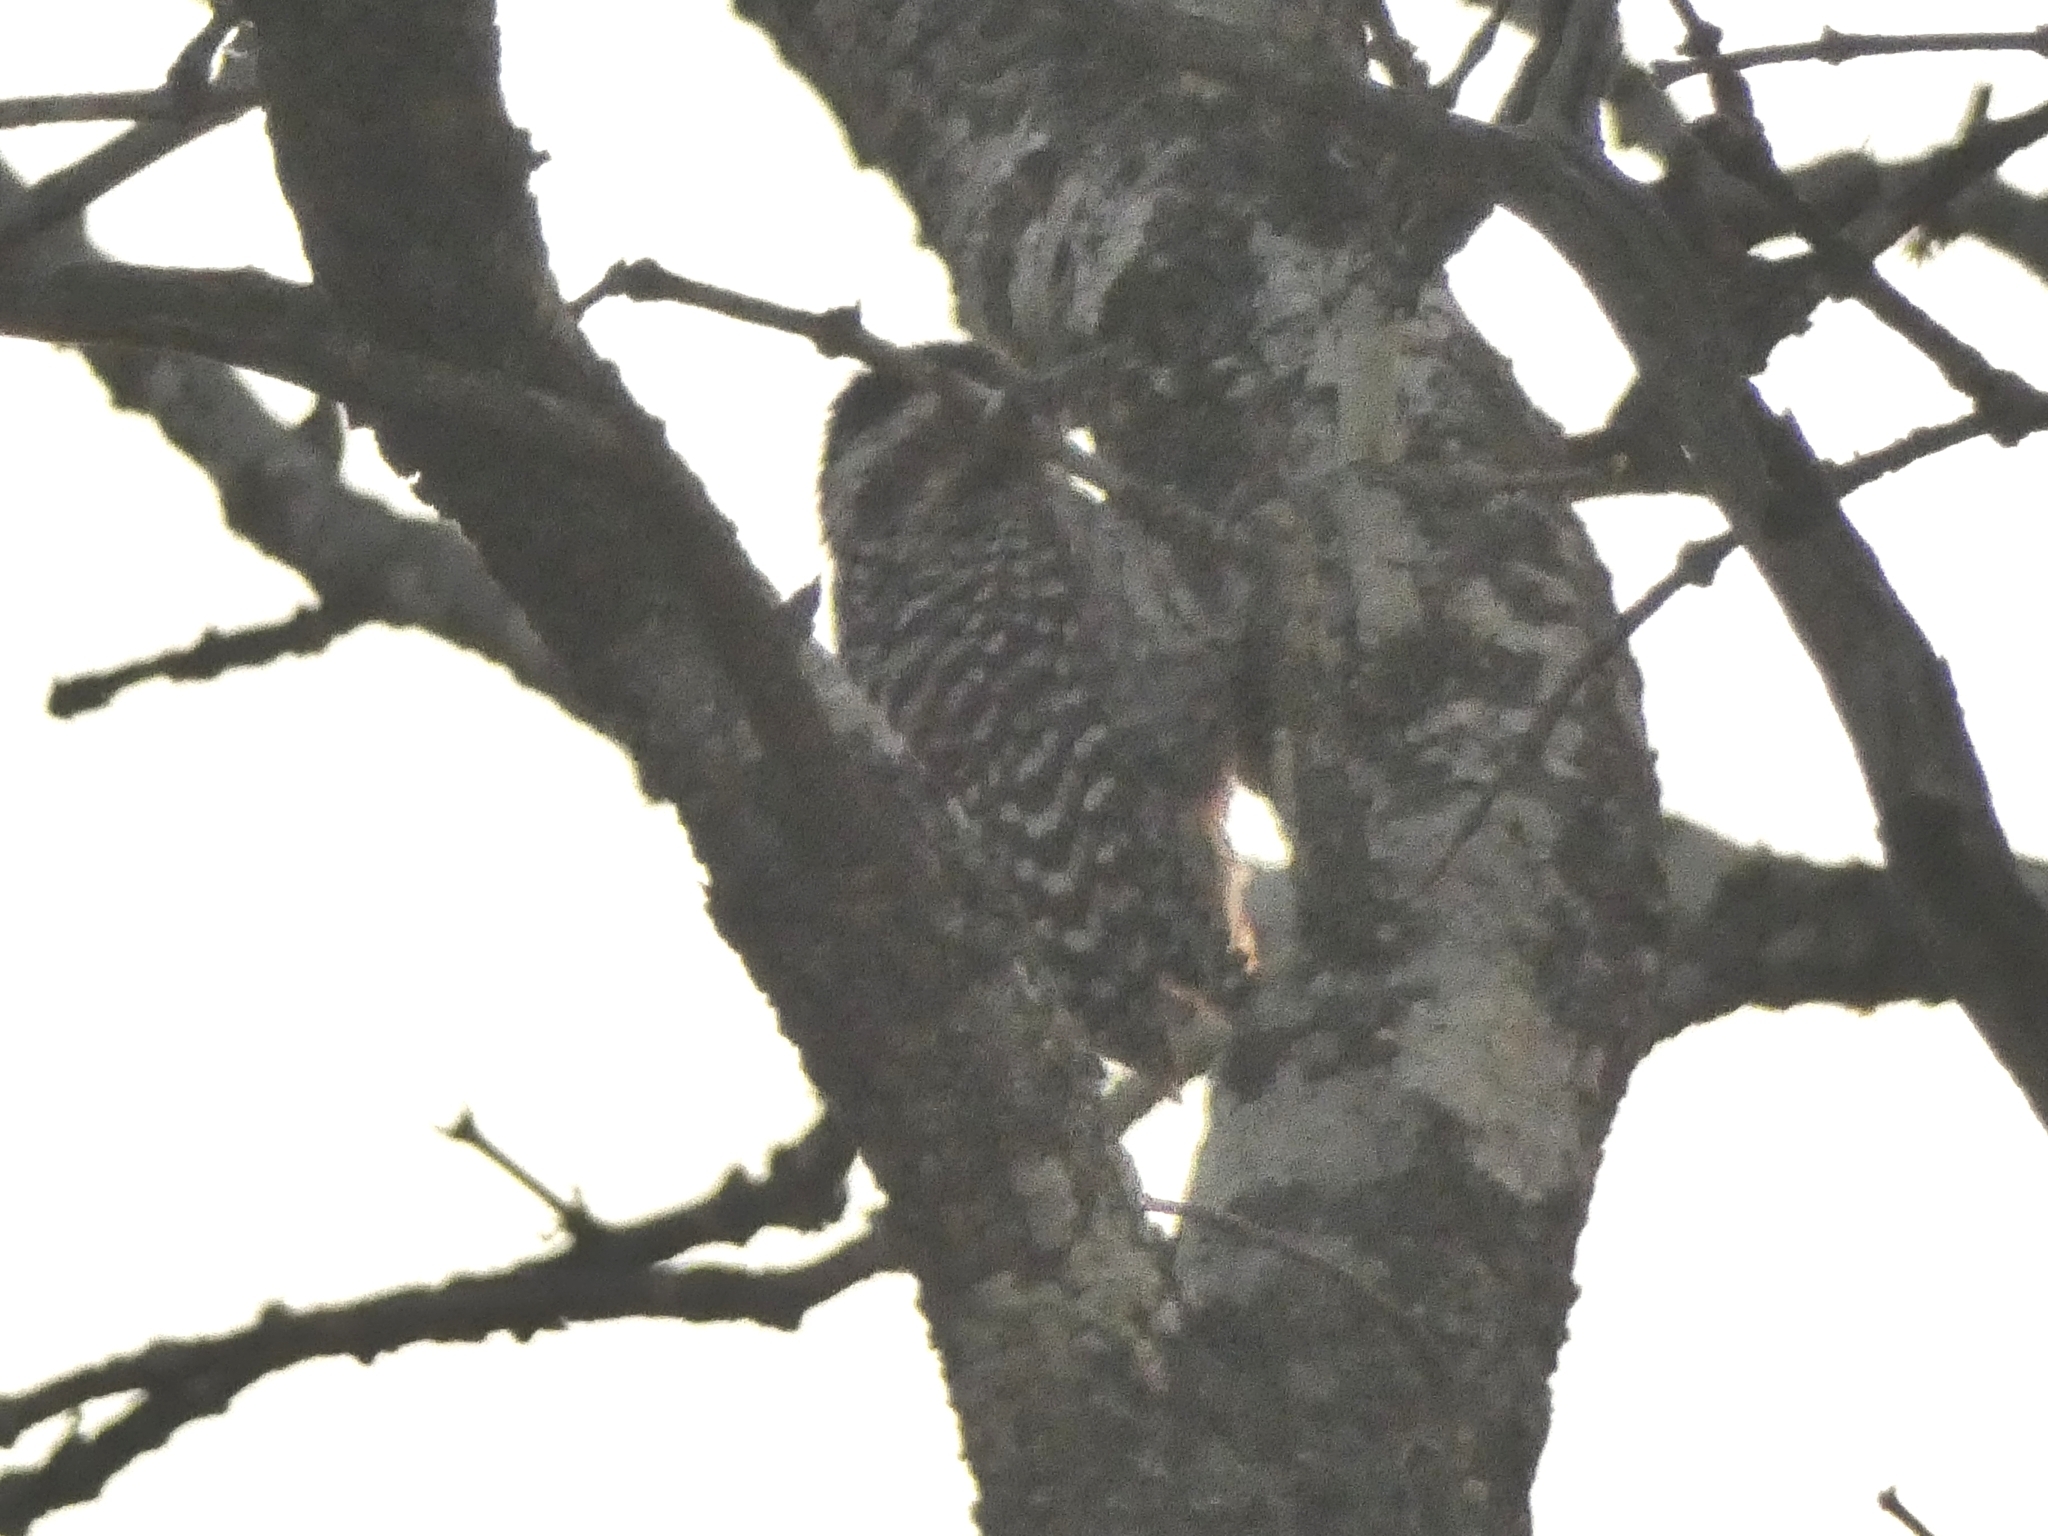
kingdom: Animalia
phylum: Chordata
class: Aves
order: Piciformes
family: Picidae
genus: Veniliornis
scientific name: Veniliornis mixtus
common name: Checkered woodpecker
